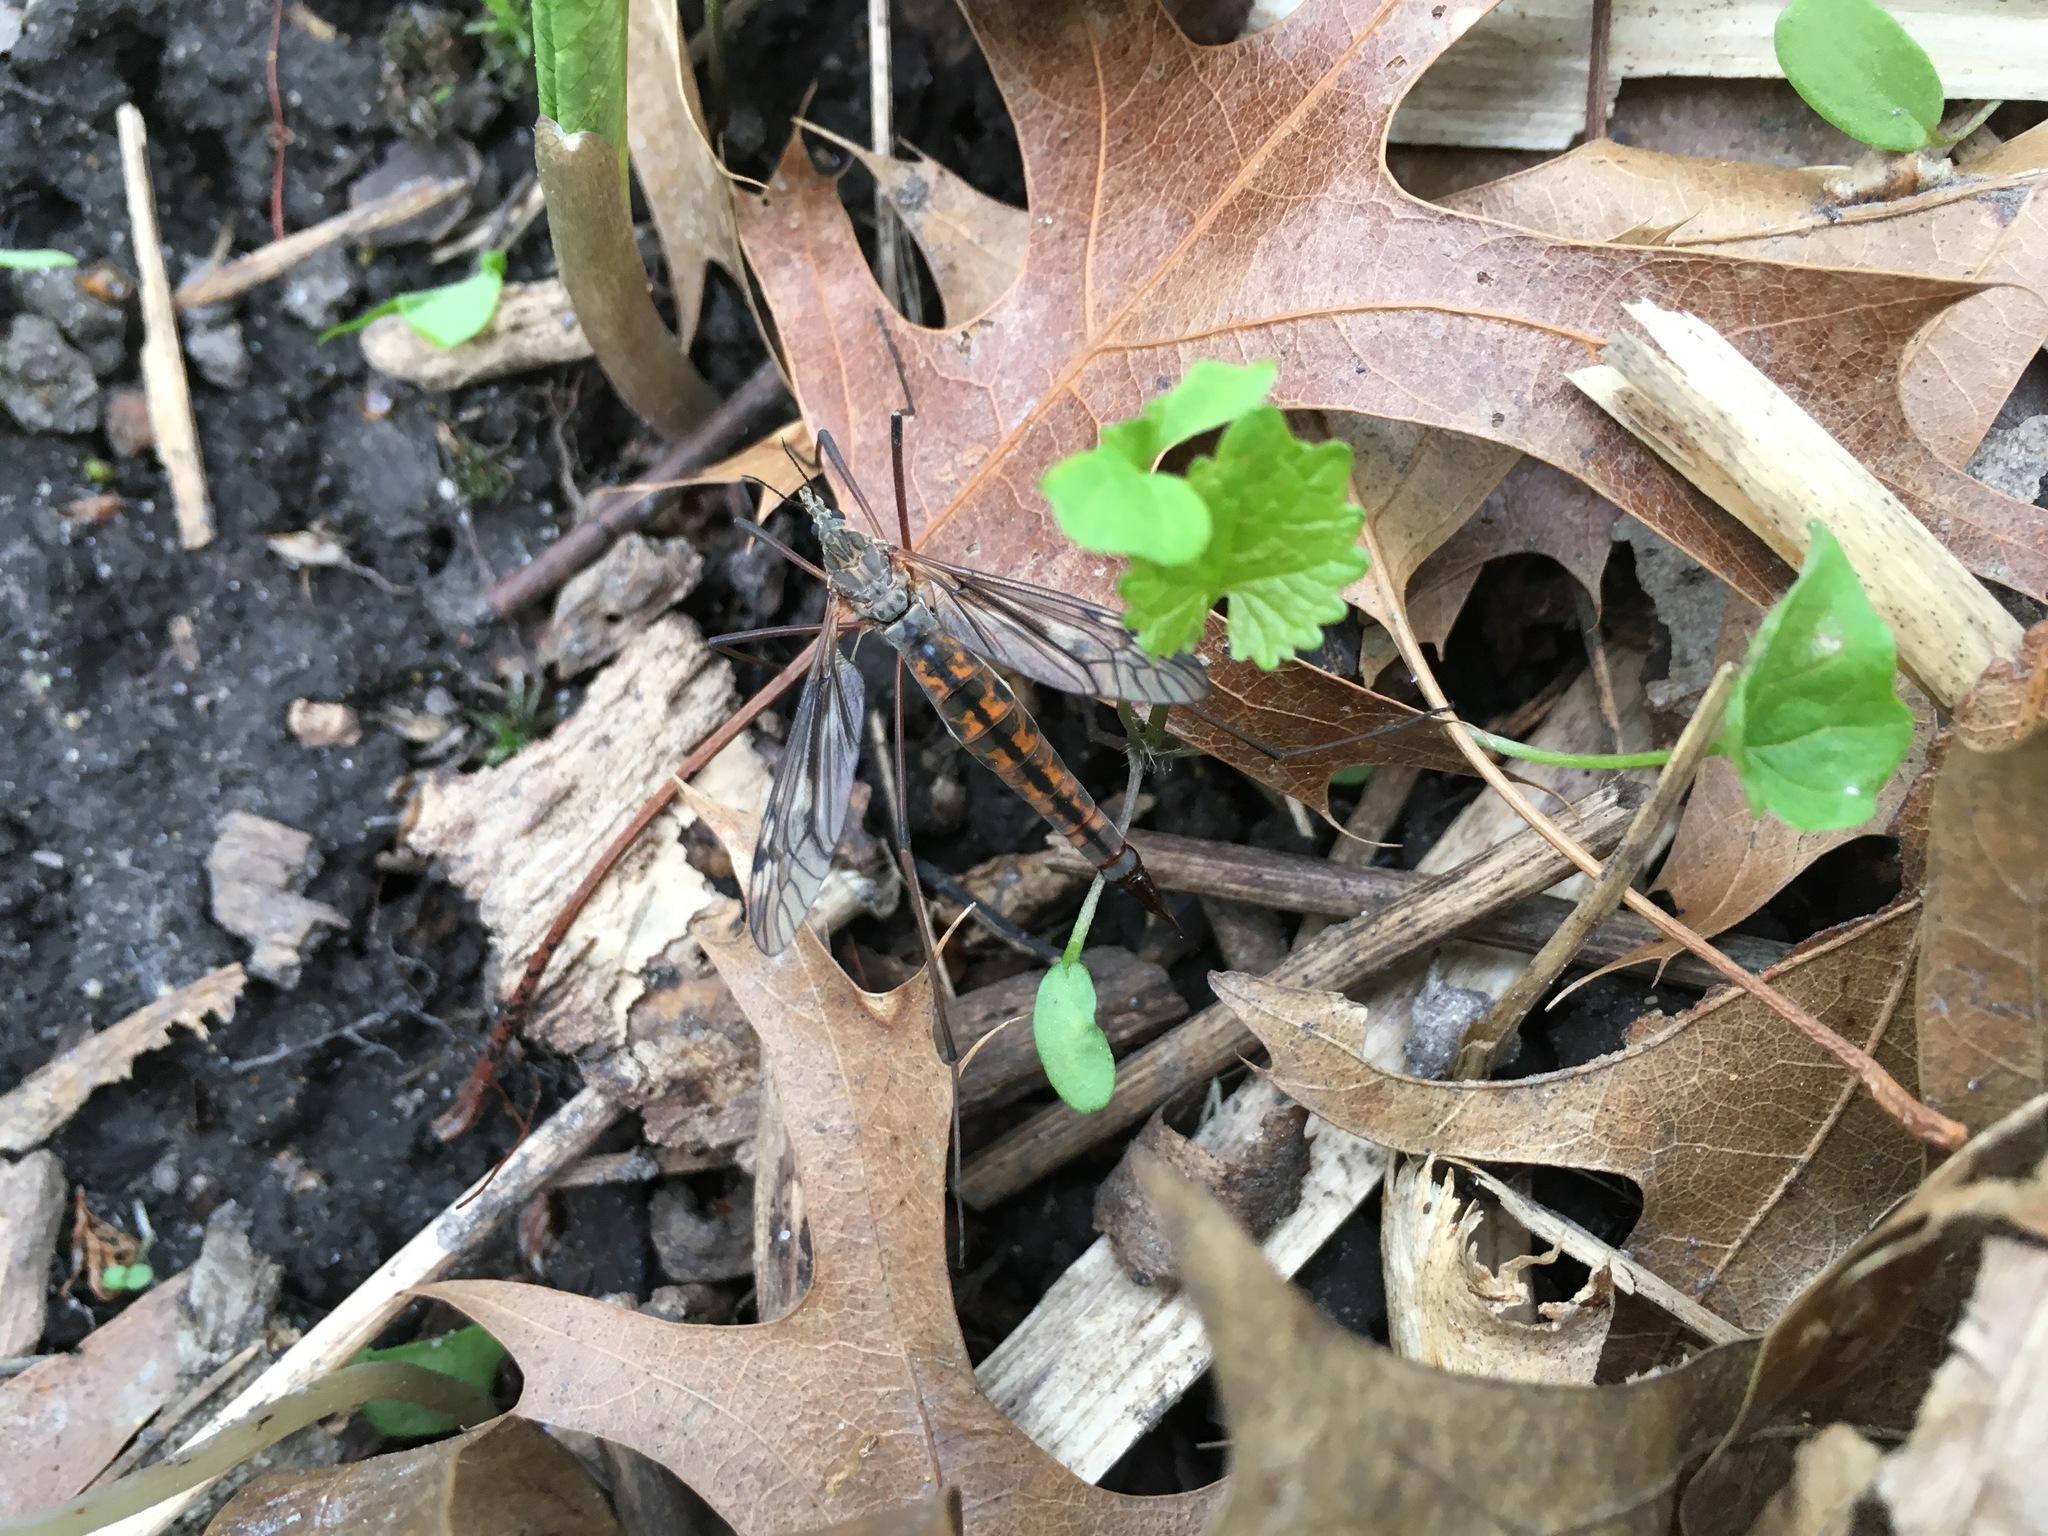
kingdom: Animalia
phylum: Arthropoda
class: Insecta
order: Diptera
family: Tipulidae
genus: Tipula
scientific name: Tipula dorsimacula
